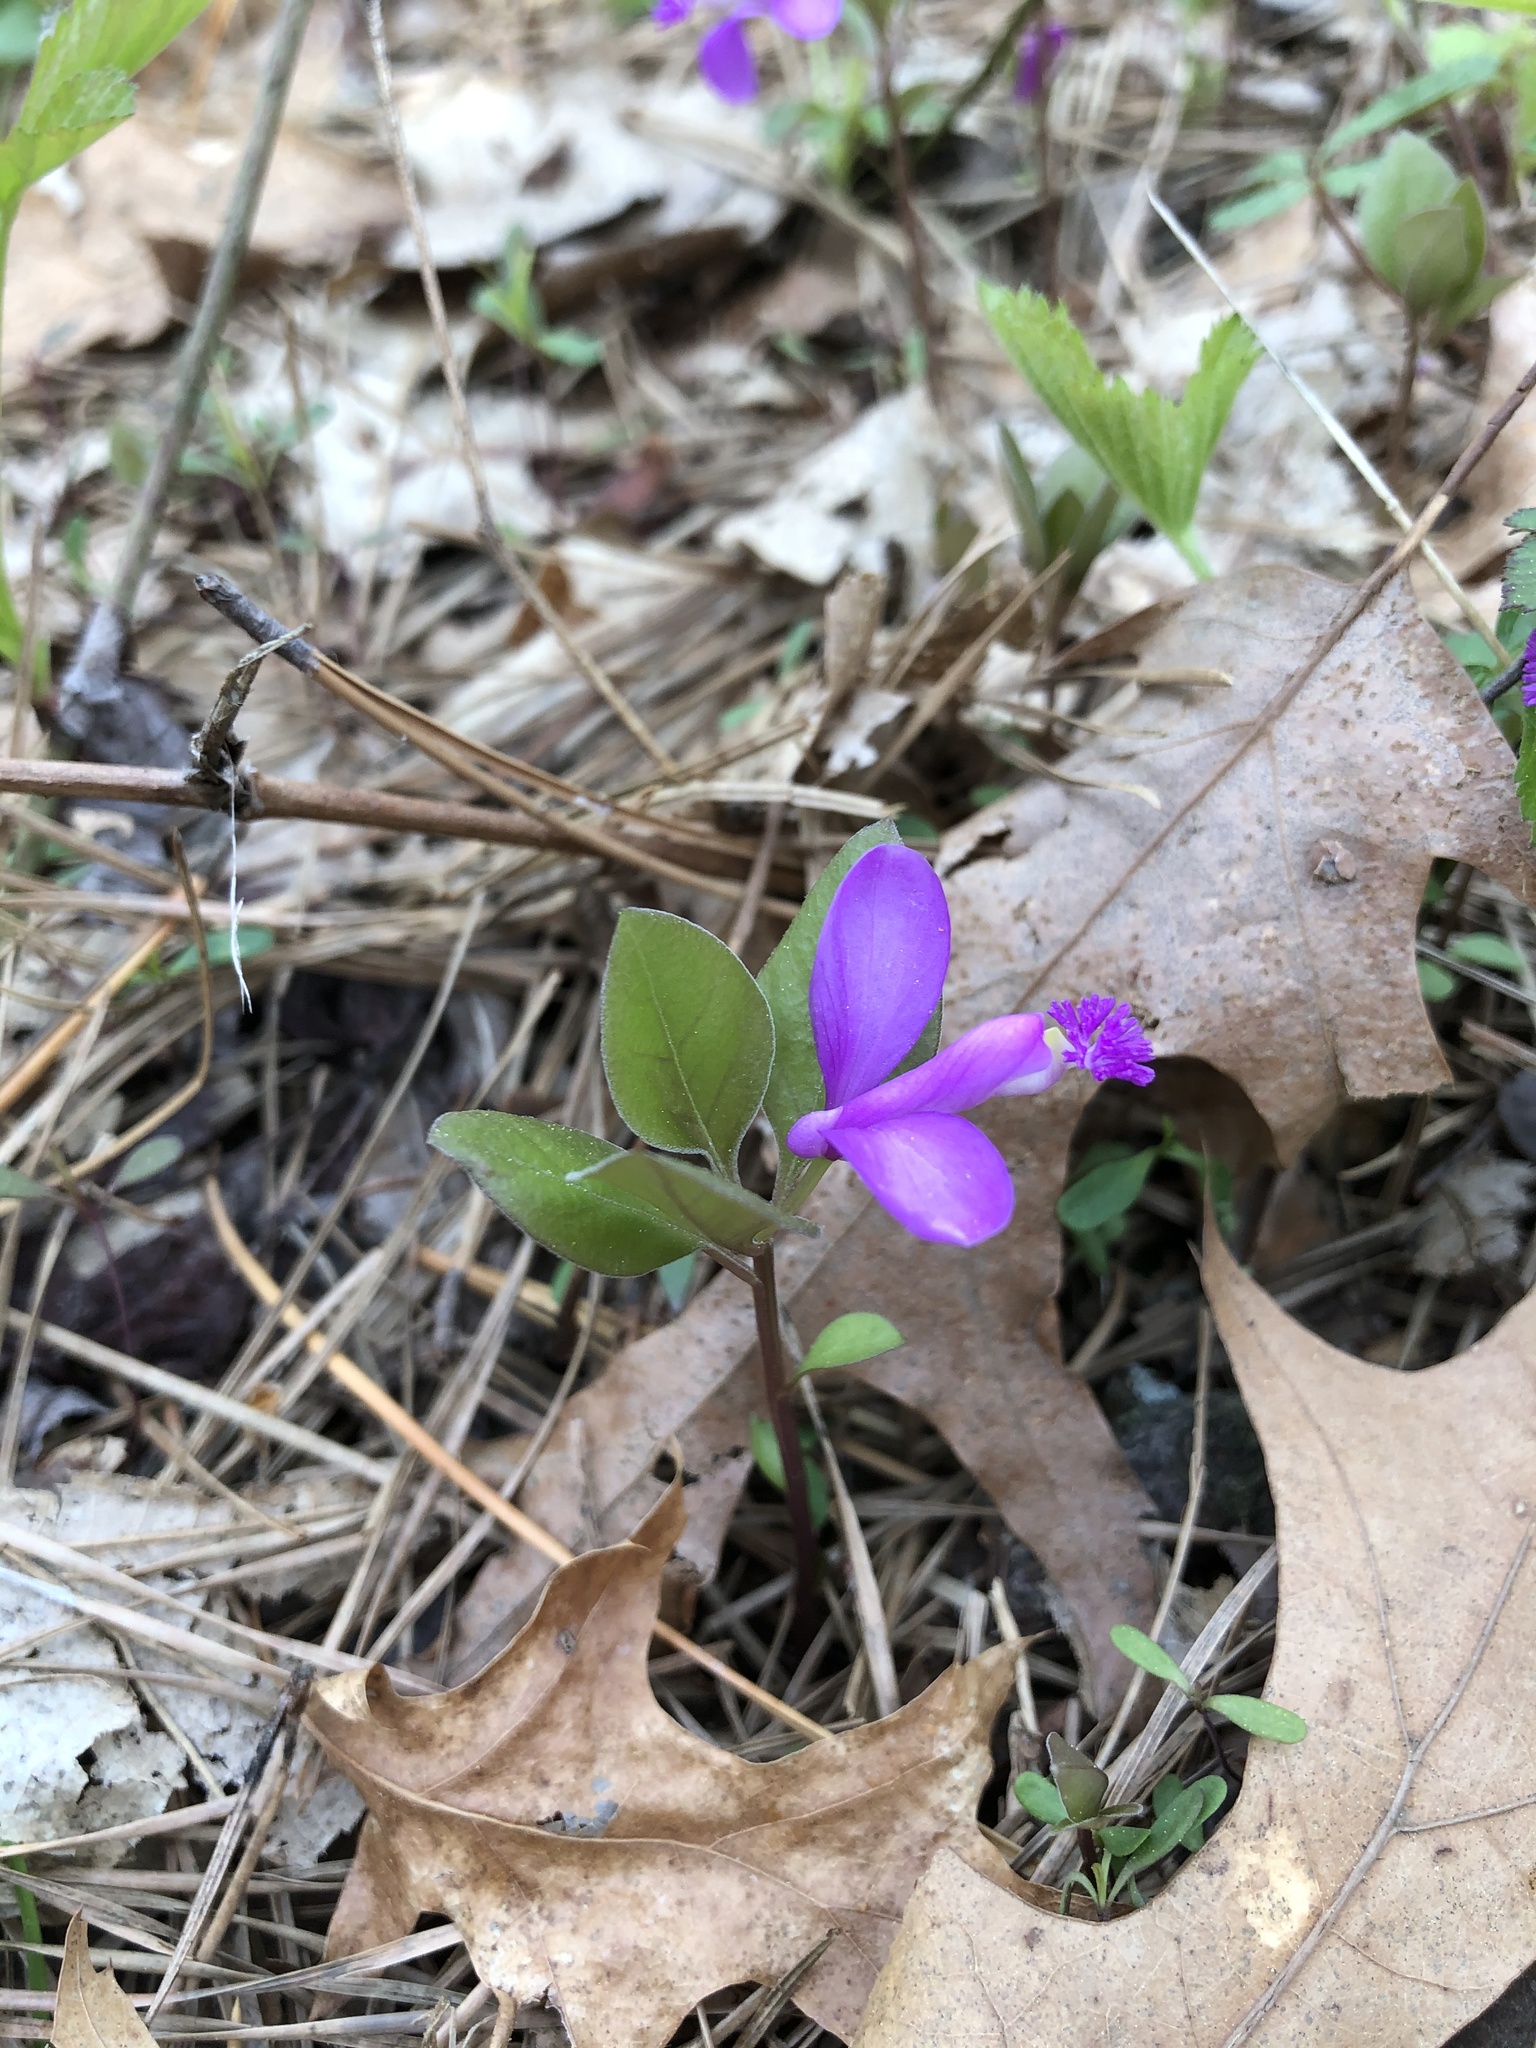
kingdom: Plantae
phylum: Tracheophyta
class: Magnoliopsida
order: Fabales
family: Polygalaceae
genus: Polygaloides
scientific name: Polygaloides paucifolia
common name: Bird-on-the-wing
